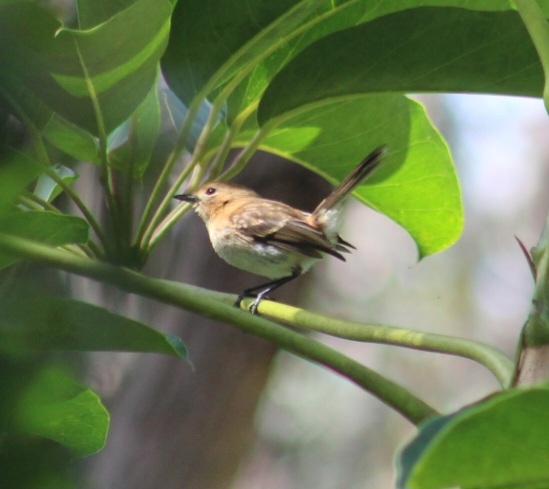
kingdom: Animalia
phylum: Chordata
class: Aves
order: Passeriformes
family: Monarchidae
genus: Chasiempis
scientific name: Chasiempis ibidis
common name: Oahu elepaio
